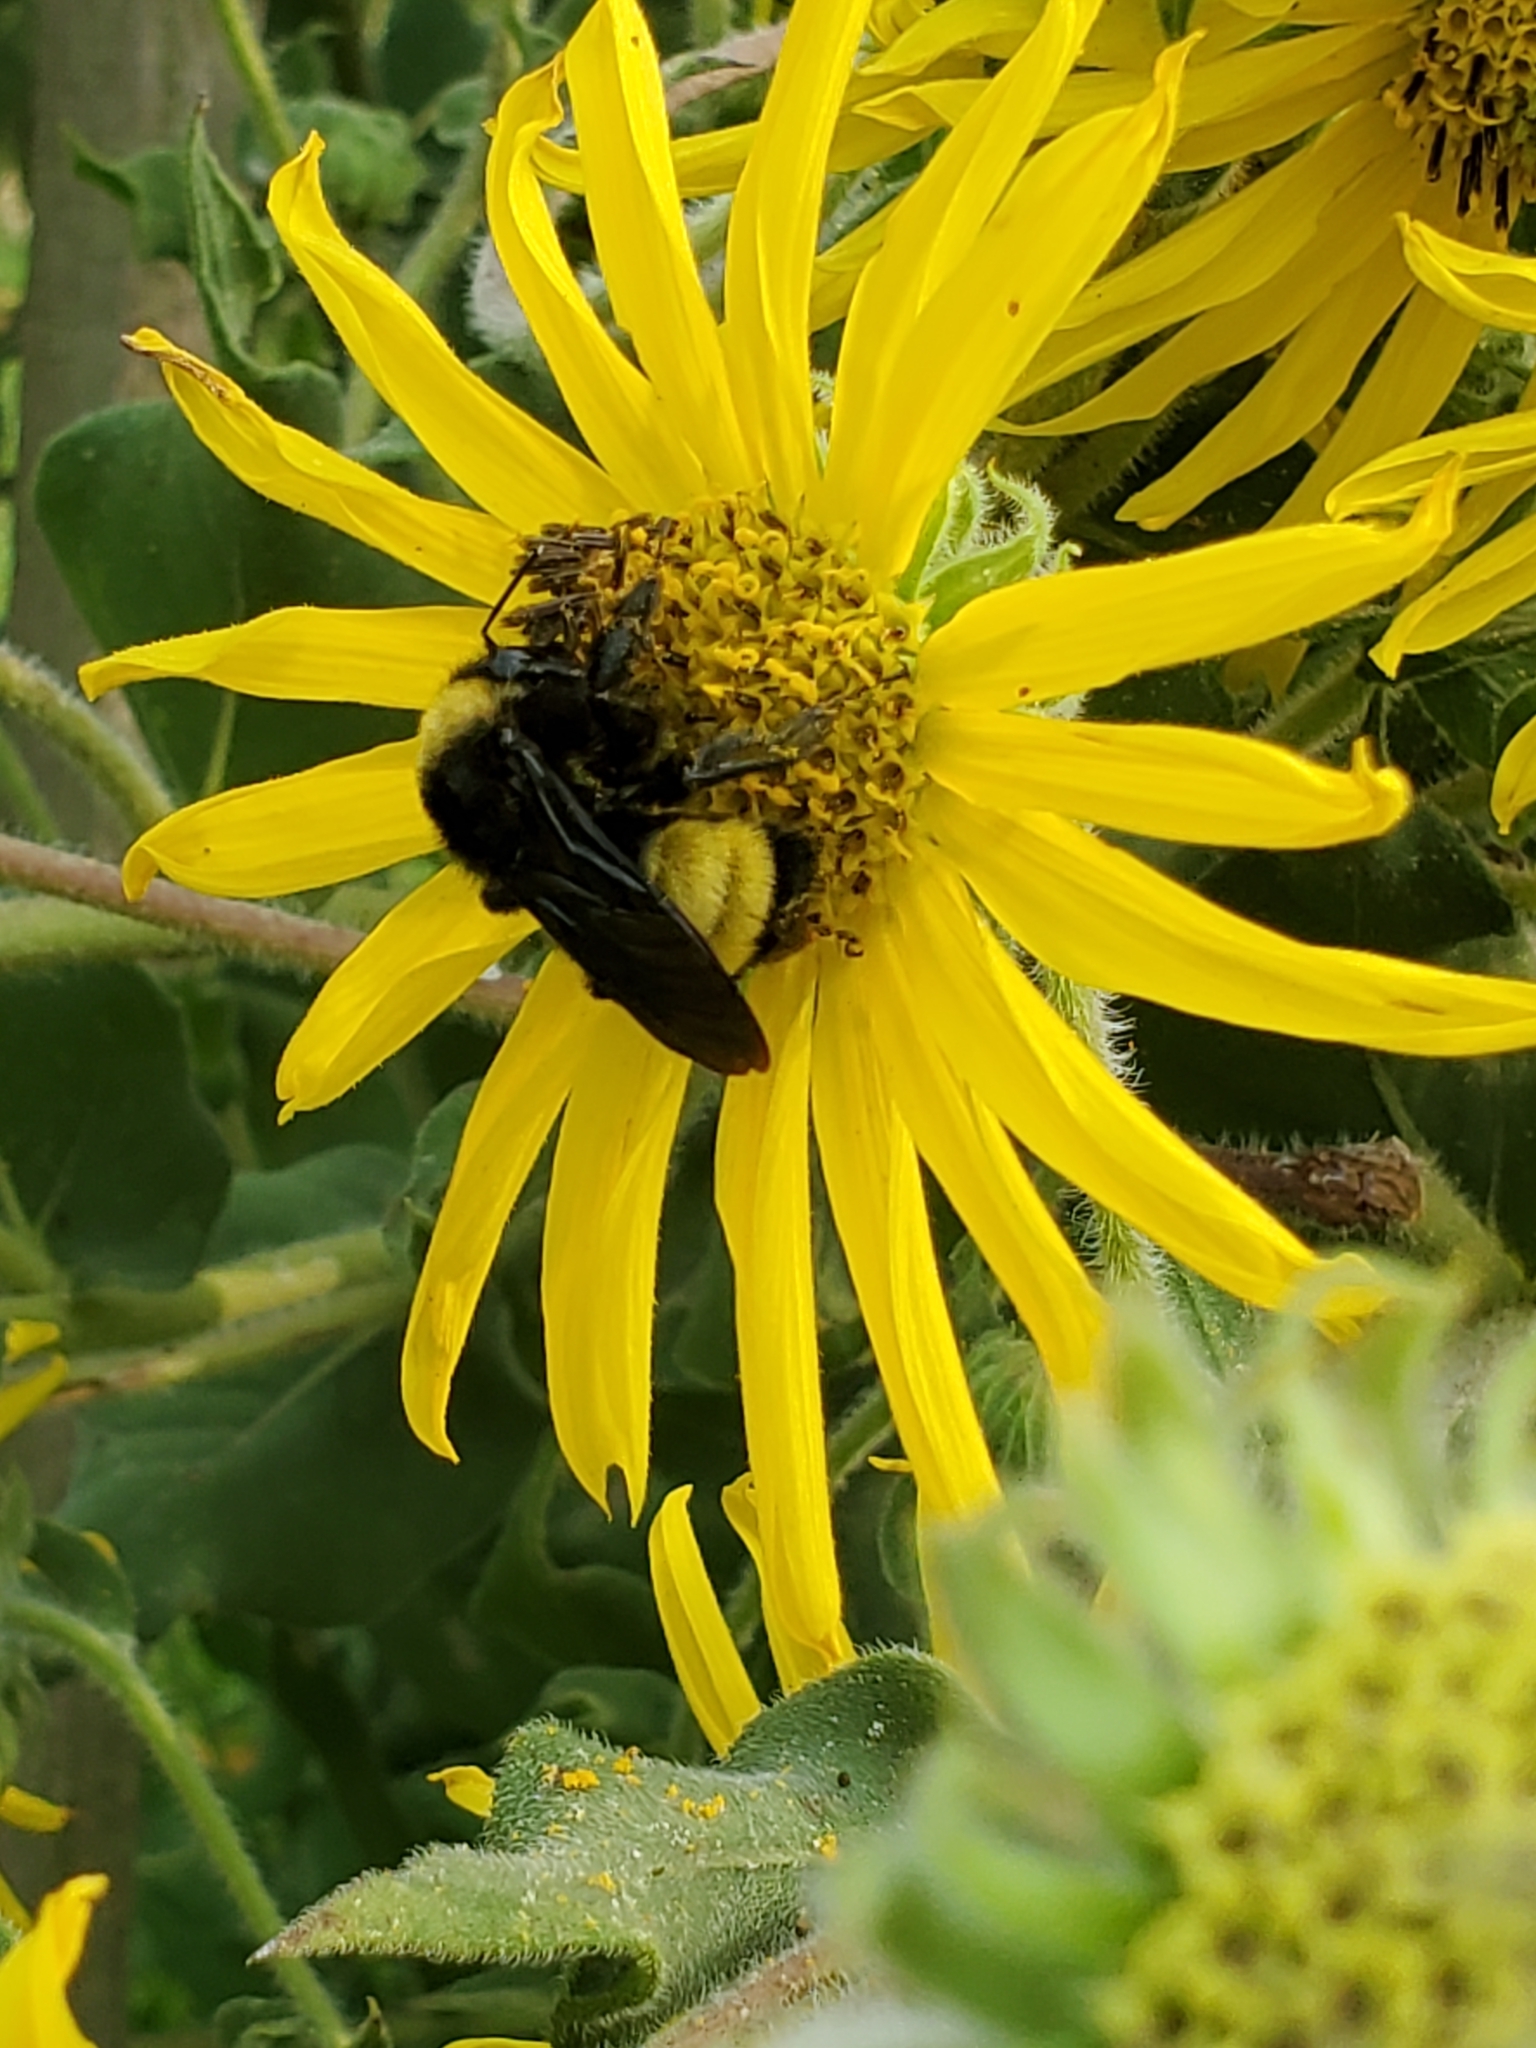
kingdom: Animalia
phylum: Arthropoda
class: Insecta
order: Hymenoptera
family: Apidae
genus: Bombus
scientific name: Bombus pensylvanicus
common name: Bumble bee
